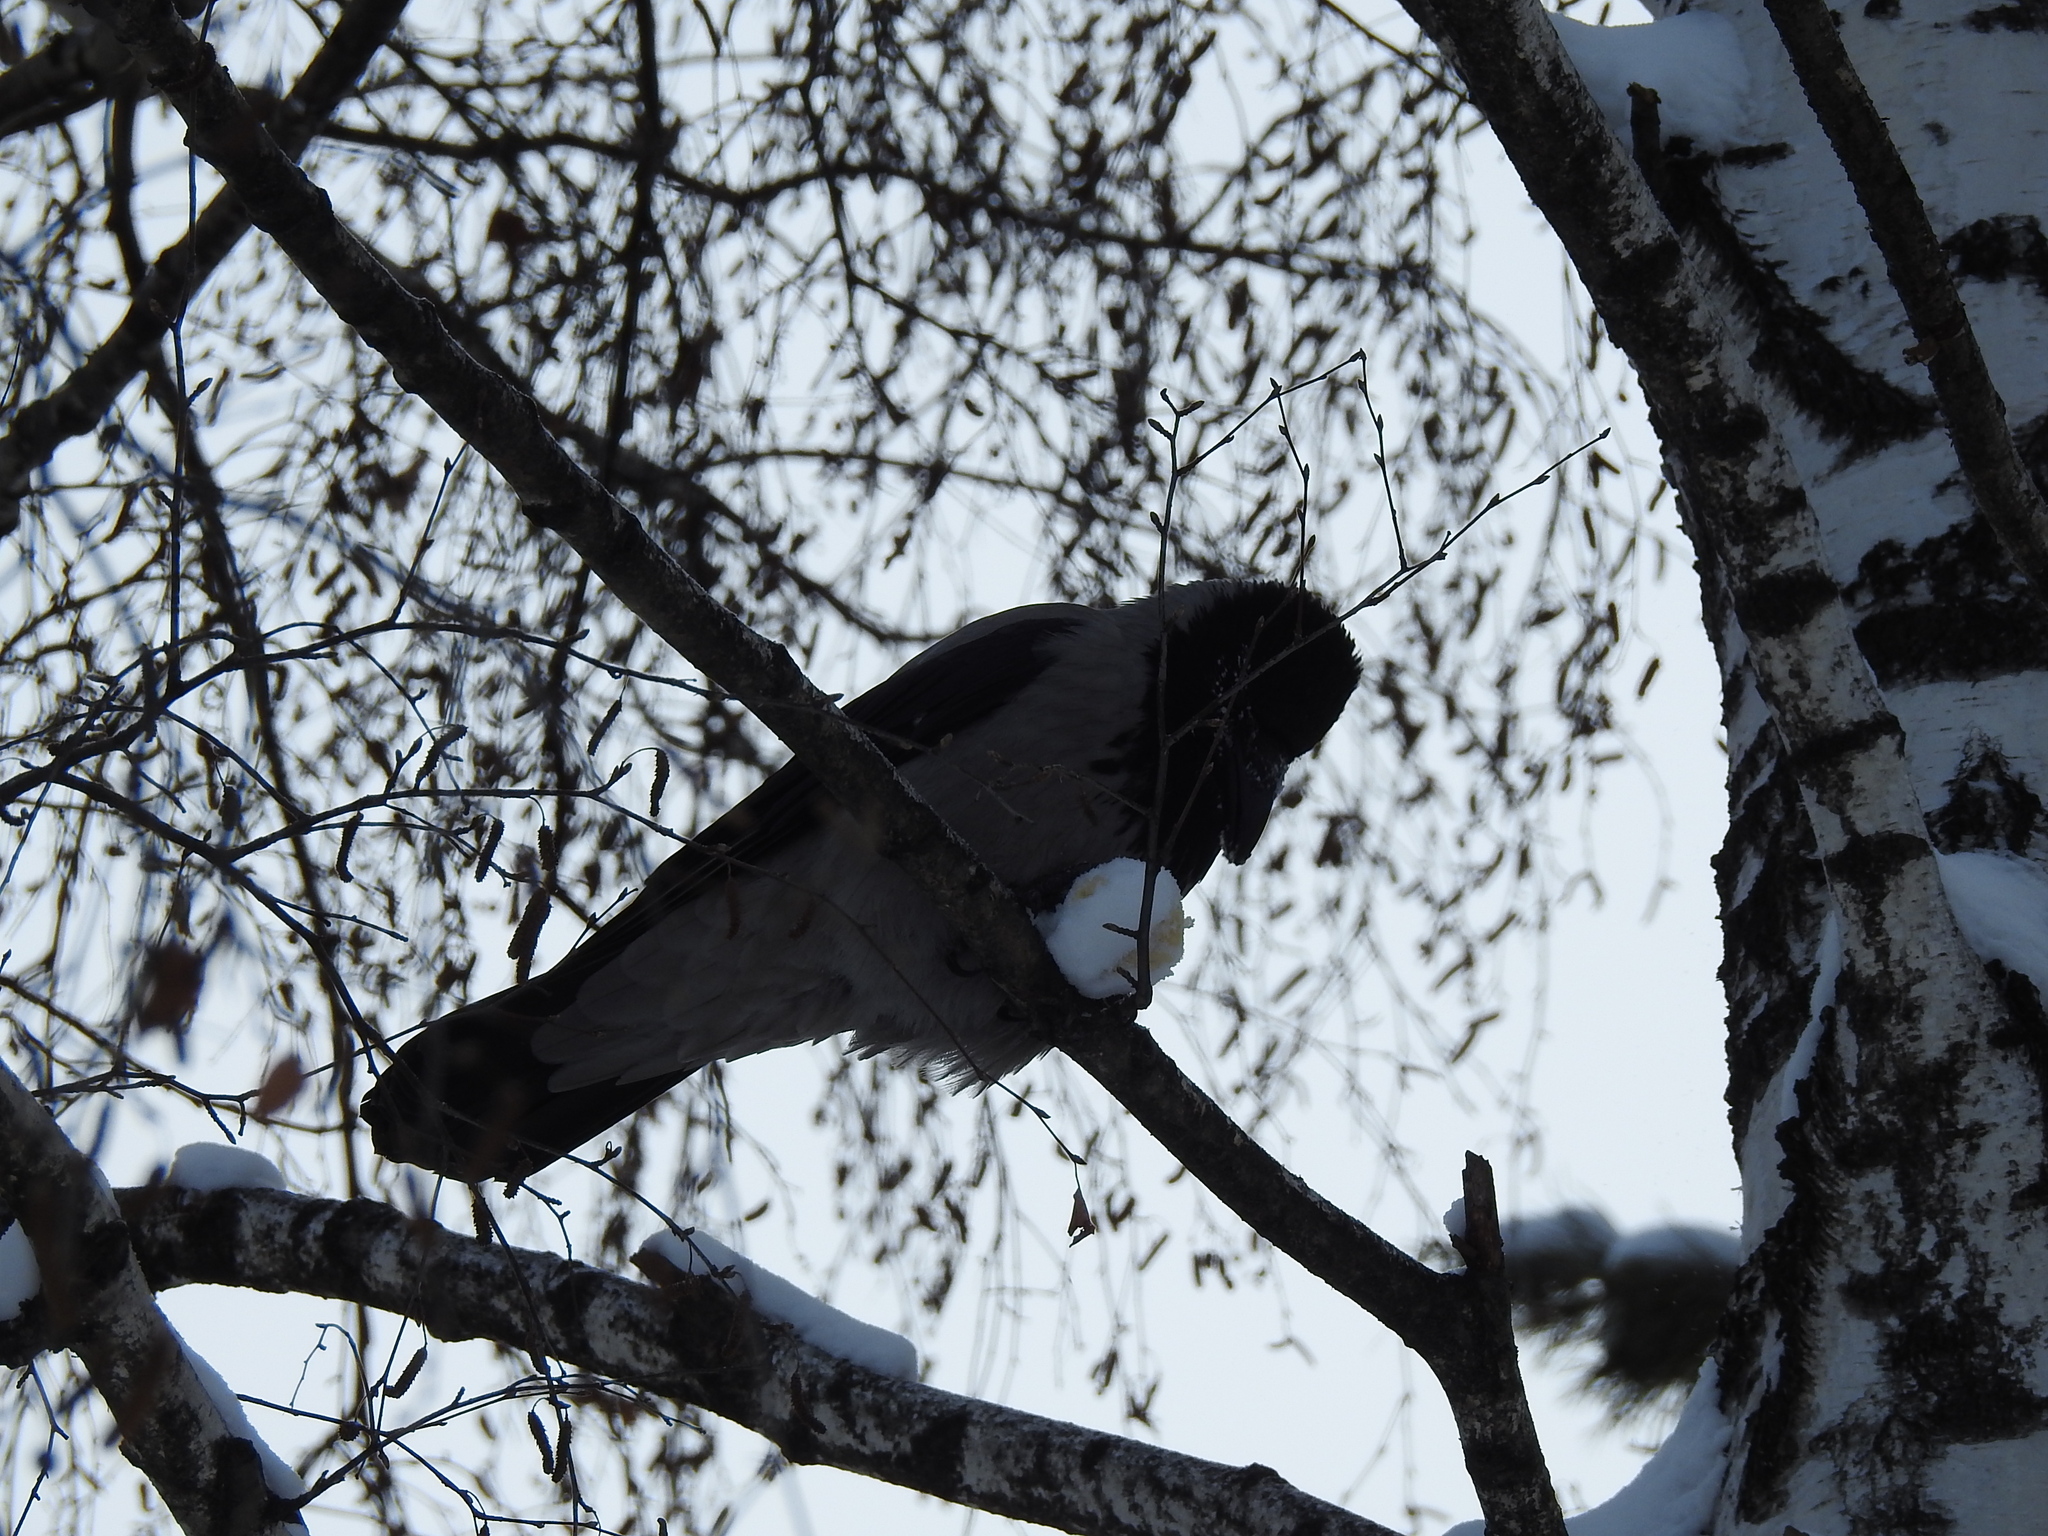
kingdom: Animalia
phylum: Chordata
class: Aves
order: Passeriformes
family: Corvidae
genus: Corvus
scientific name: Corvus cornix
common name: Hooded crow
